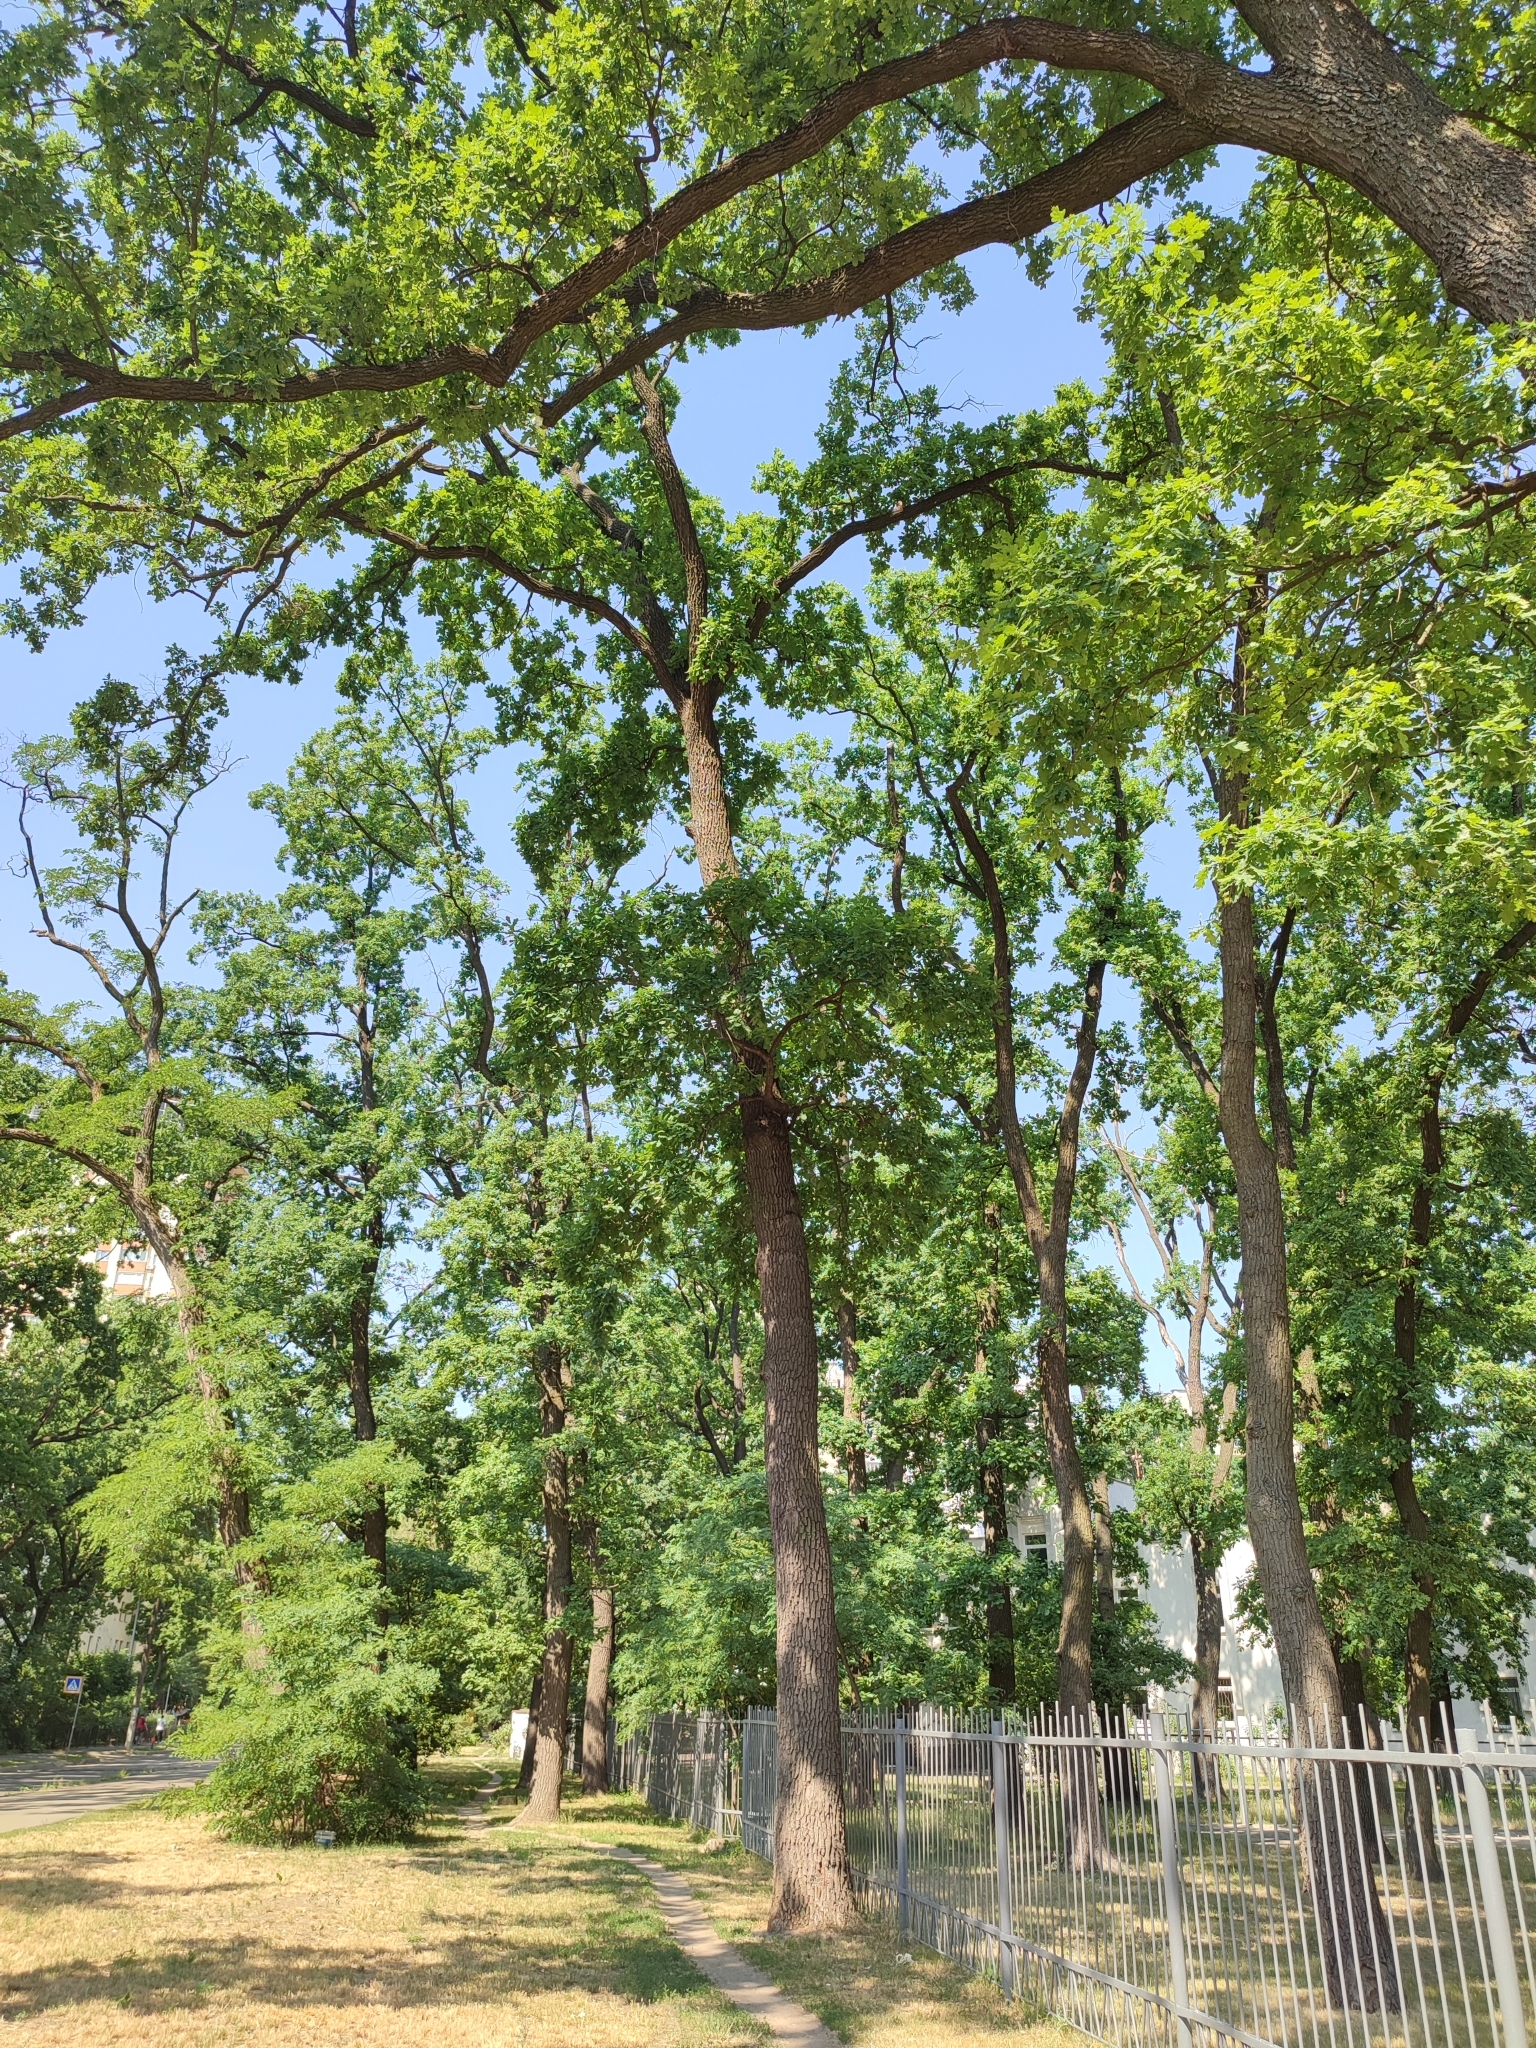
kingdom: Plantae
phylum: Tracheophyta
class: Magnoliopsida
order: Fagales
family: Fagaceae
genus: Quercus
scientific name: Quercus robur
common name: Pedunculate oak
